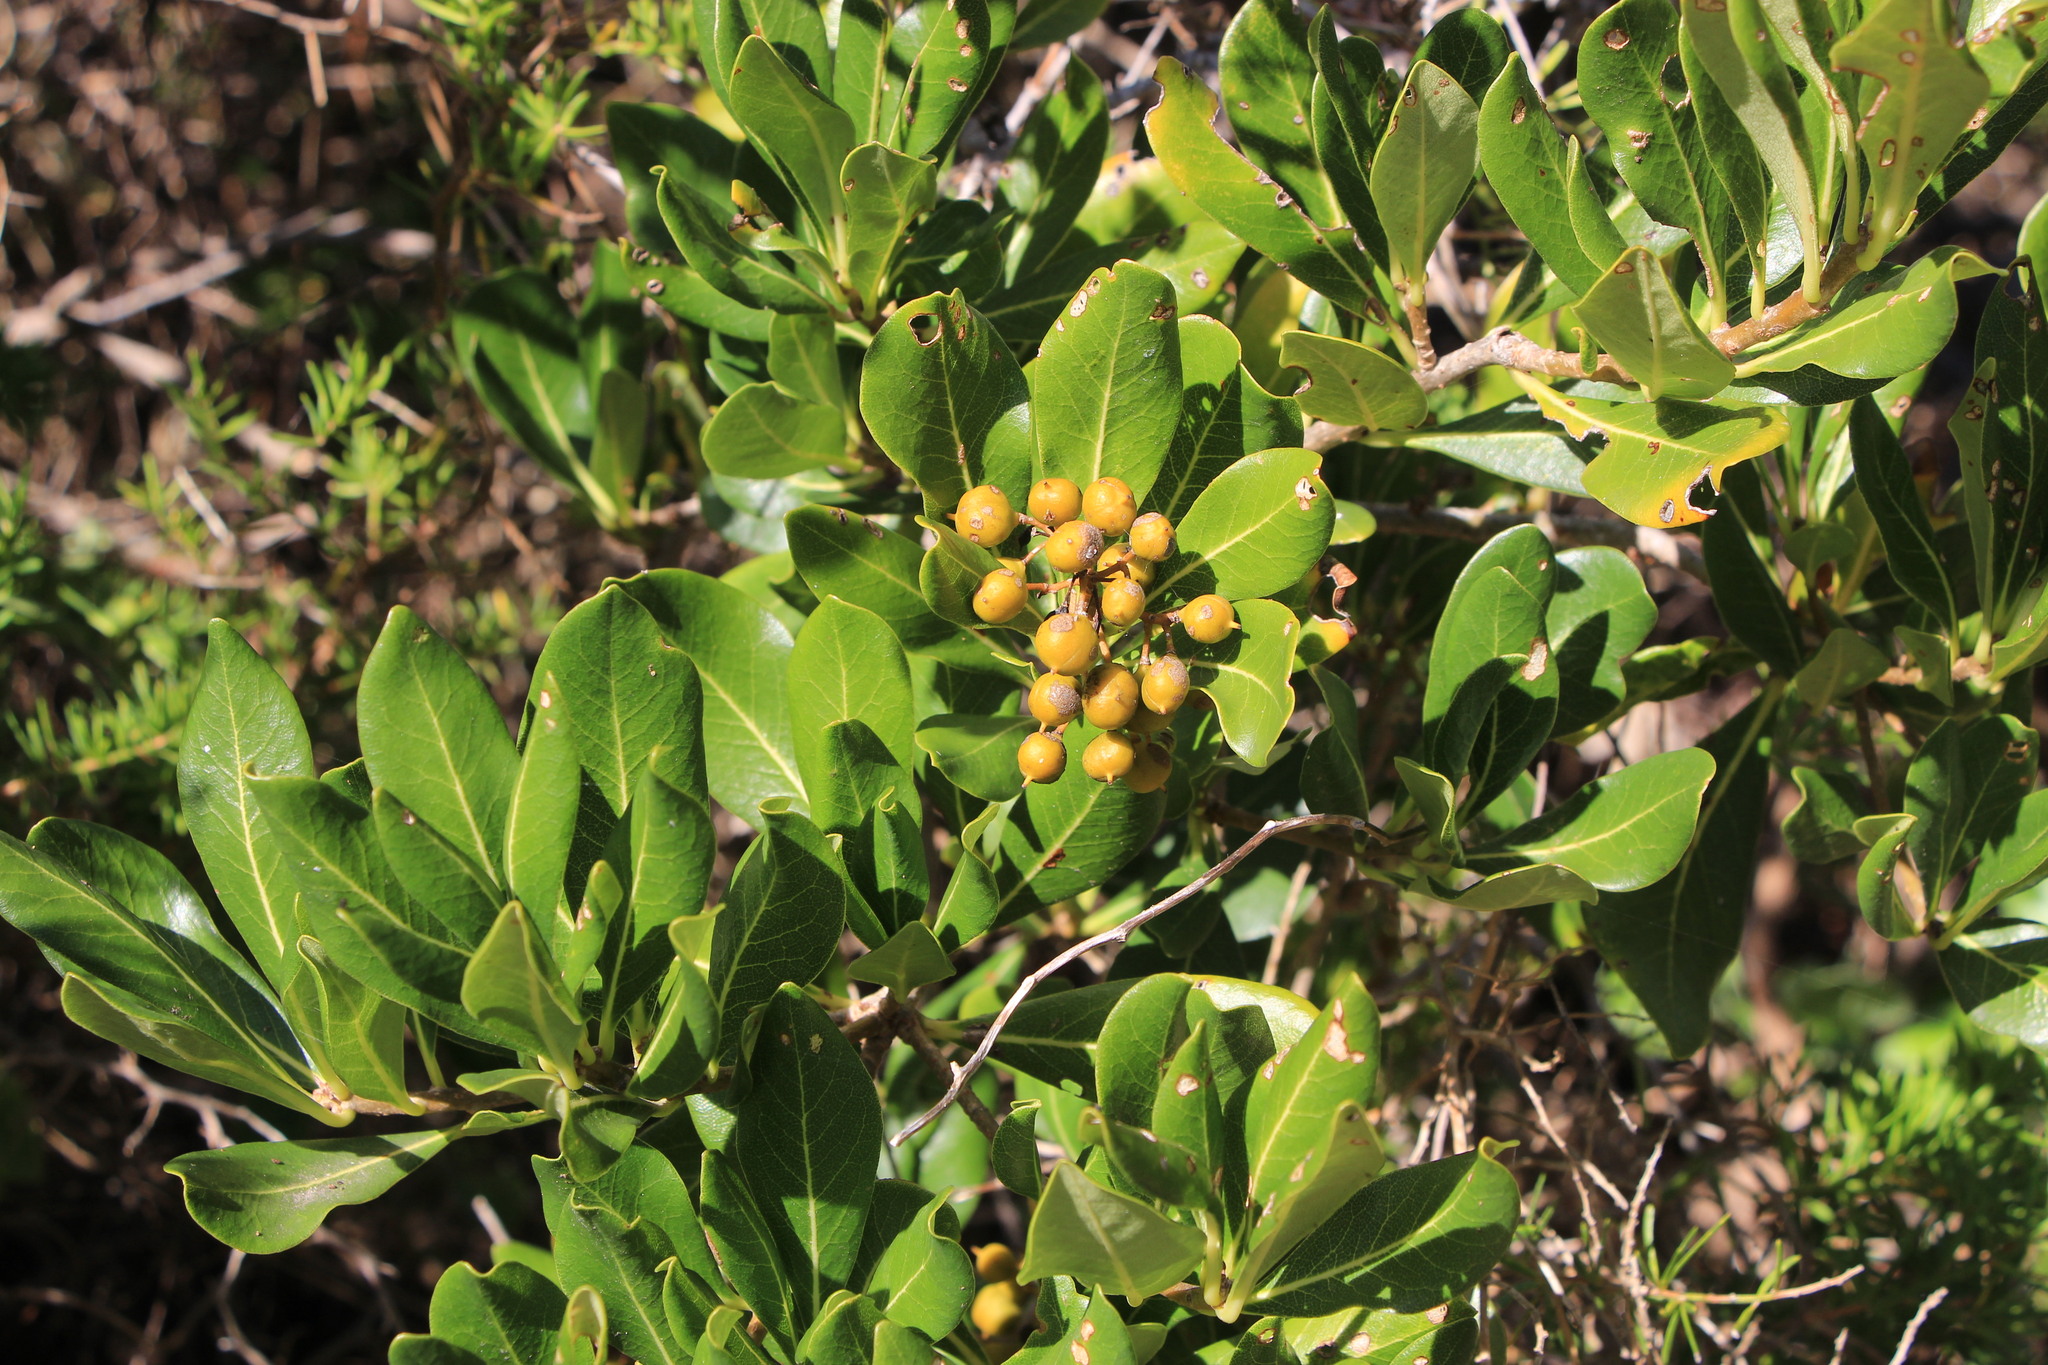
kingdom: Plantae
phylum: Tracheophyta
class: Magnoliopsida
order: Apiales
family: Pittosporaceae
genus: Pittosporum
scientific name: Pittosporum viridiflorum
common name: Cape cheesewood
